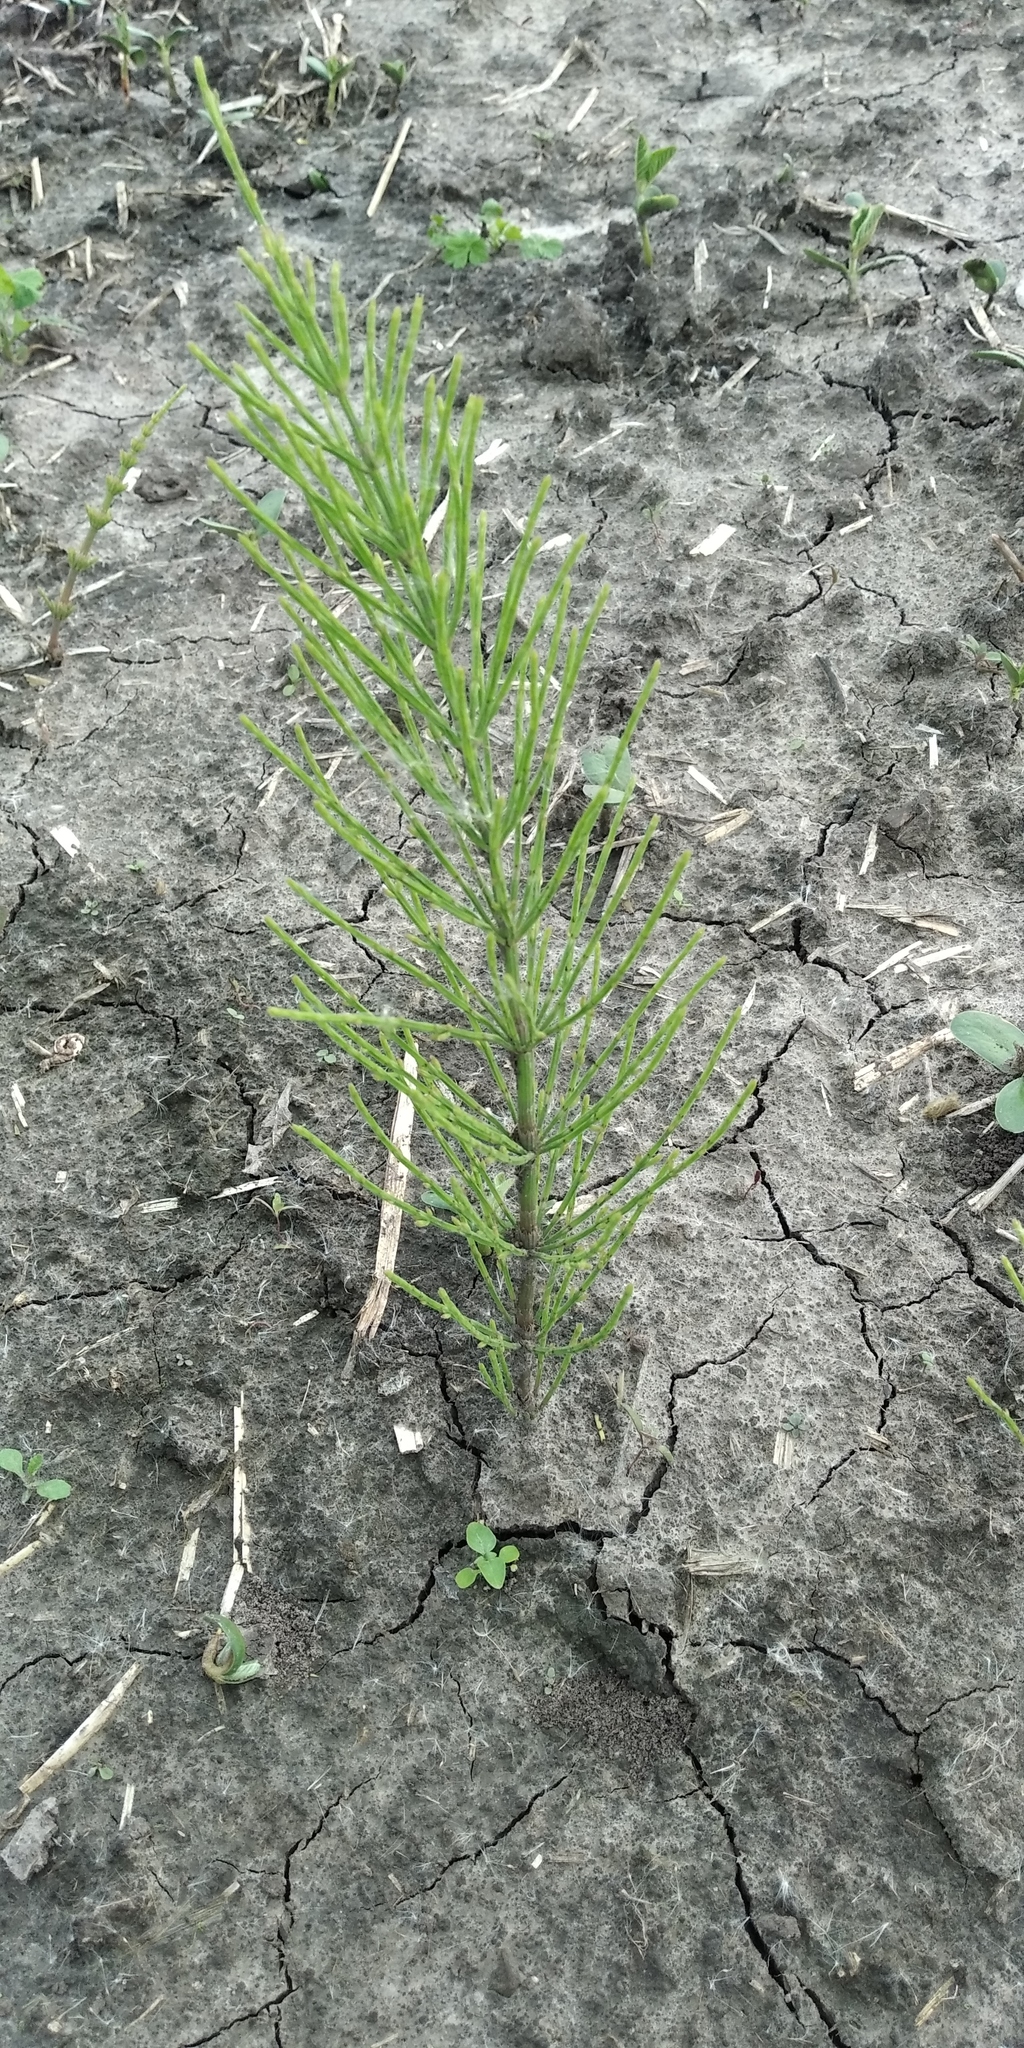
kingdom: Plantae
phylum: Tracheophyta
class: Polypodiopsida
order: Equisetales
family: Equisetaceae
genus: Equisetum
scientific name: Equisetum arvense
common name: Field horsetail
